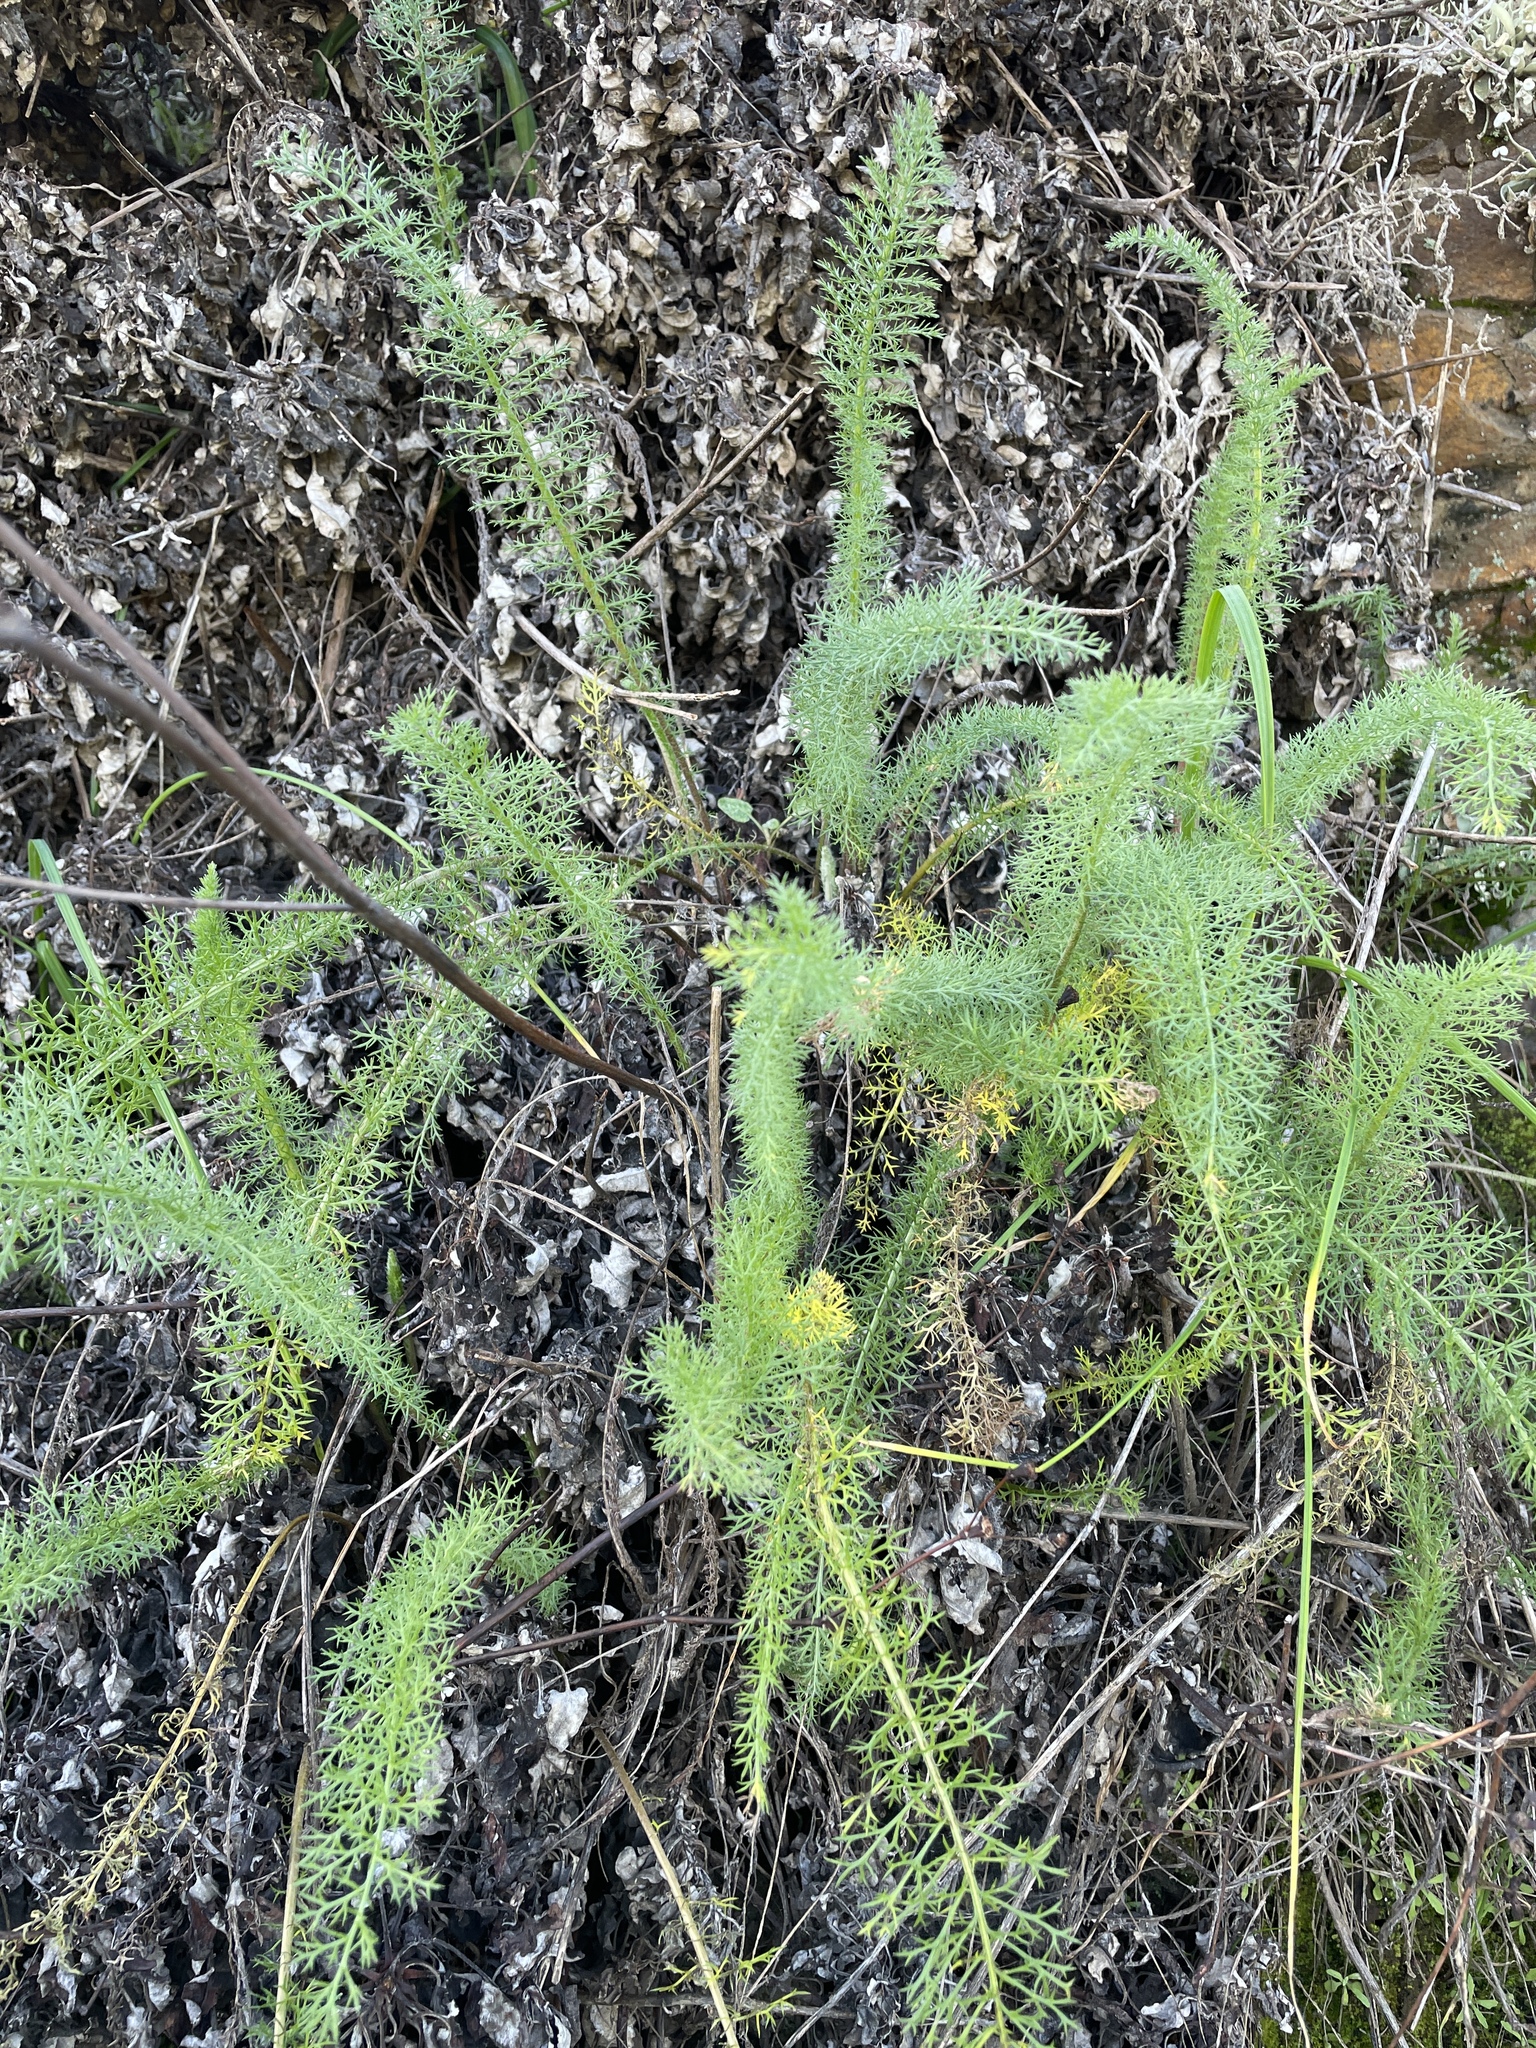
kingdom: Plantae
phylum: Tracheophyta
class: Magnoliopsida
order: Asterales
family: Asteraceae
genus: Achillea
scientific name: Achillea millefolium
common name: Yarrow
